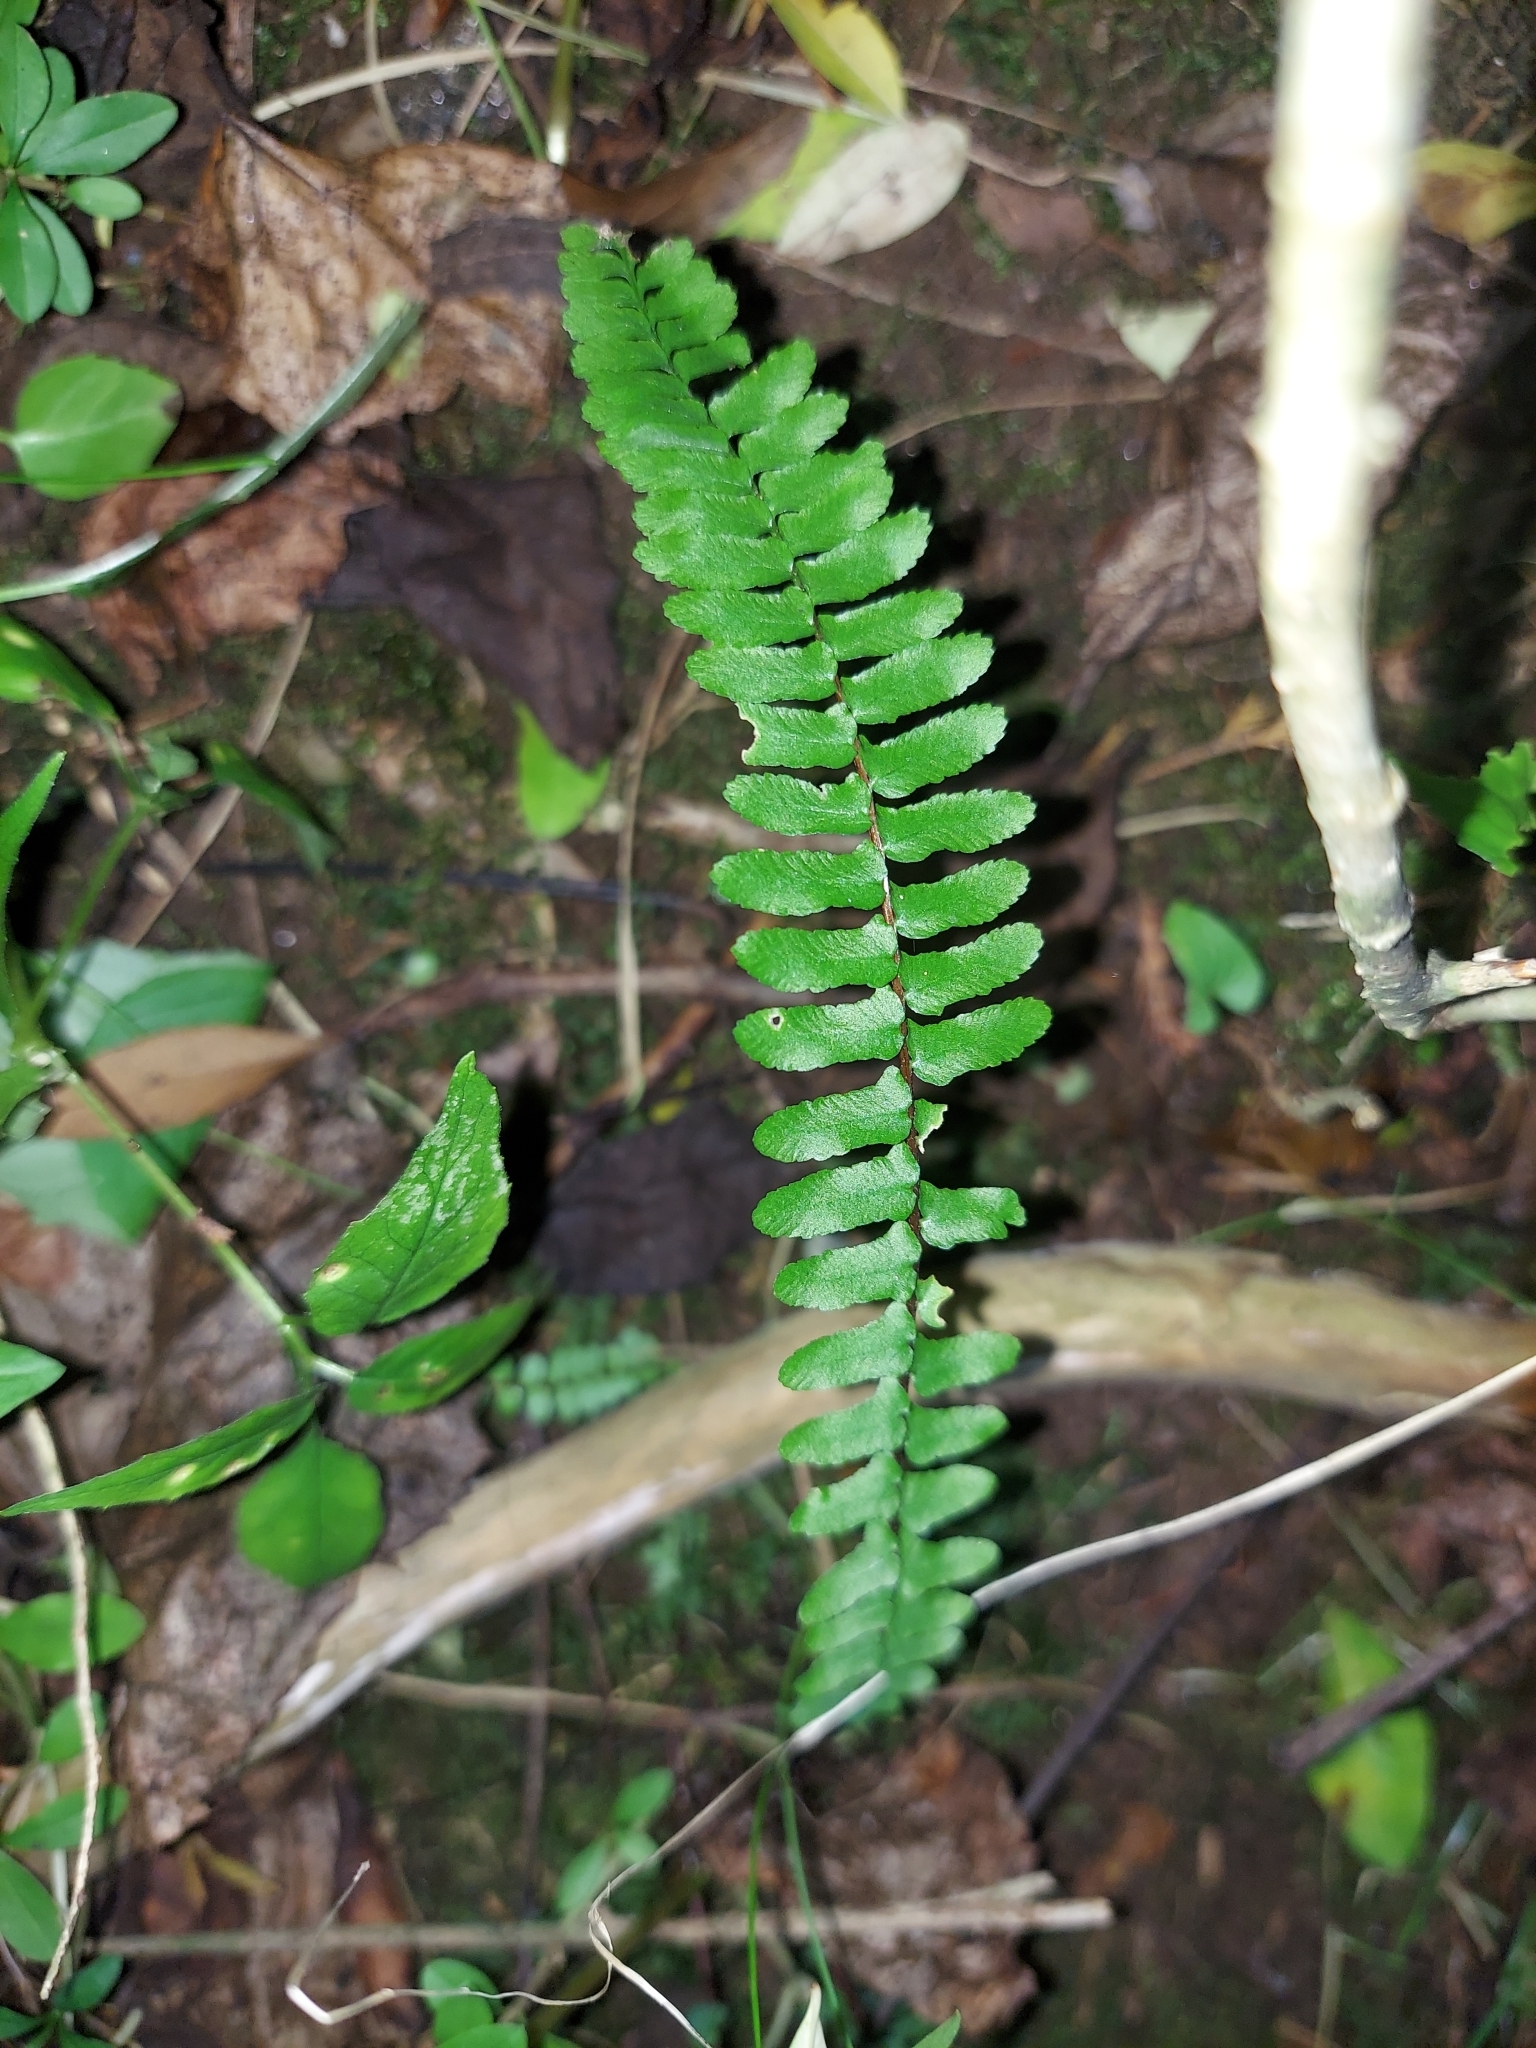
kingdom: Plantae
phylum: Tracheophyta
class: Polypodiopsida
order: Polypodiales
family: Aspleniaceae
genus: Asplenium
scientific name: Asplenium platyneuron
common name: Ebony spleenwort
